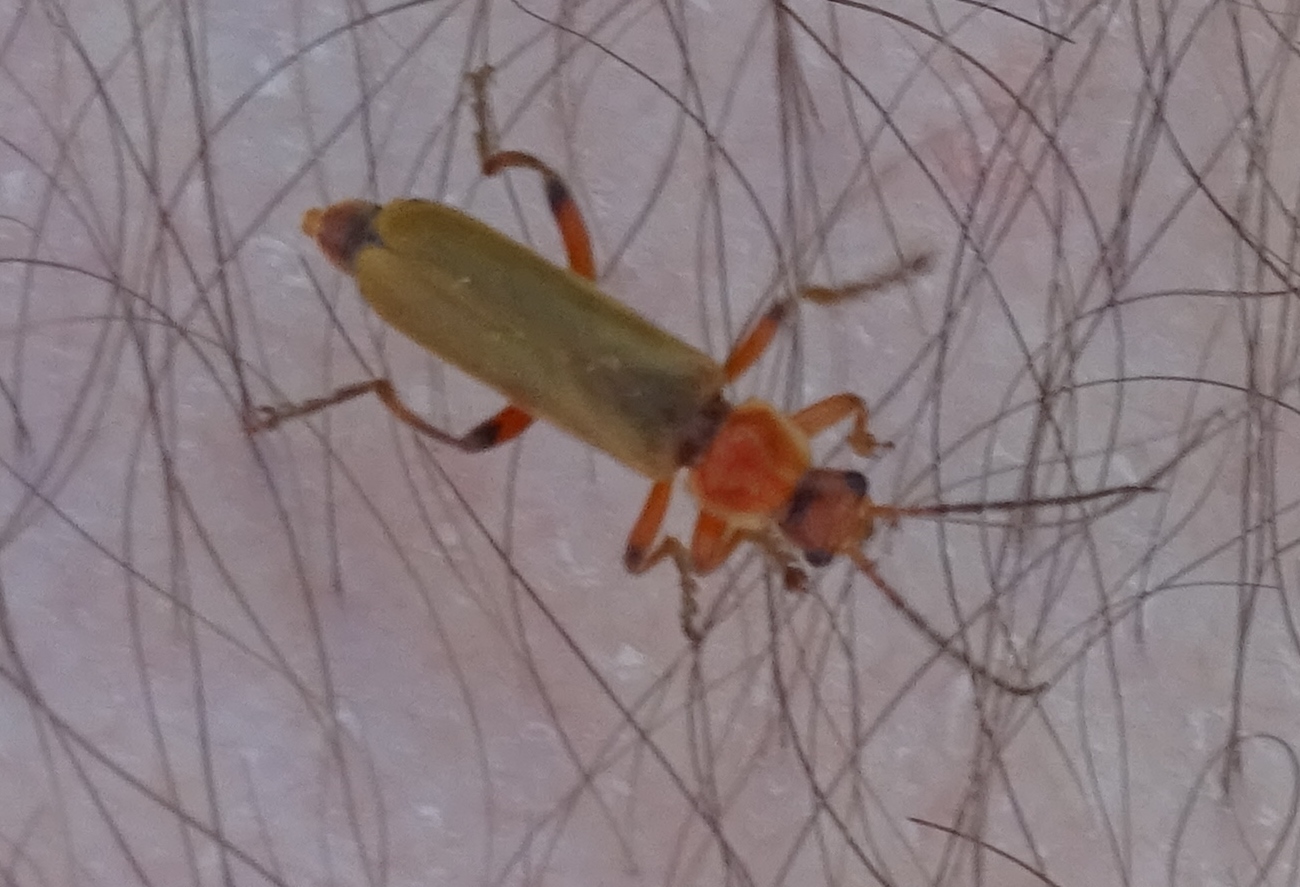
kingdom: Animalia
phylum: Arthropoda
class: Insecta
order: Coleoptera
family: Cantharidae
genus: Cantharis
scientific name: Cantharis livida
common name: Livid soldier beetle
